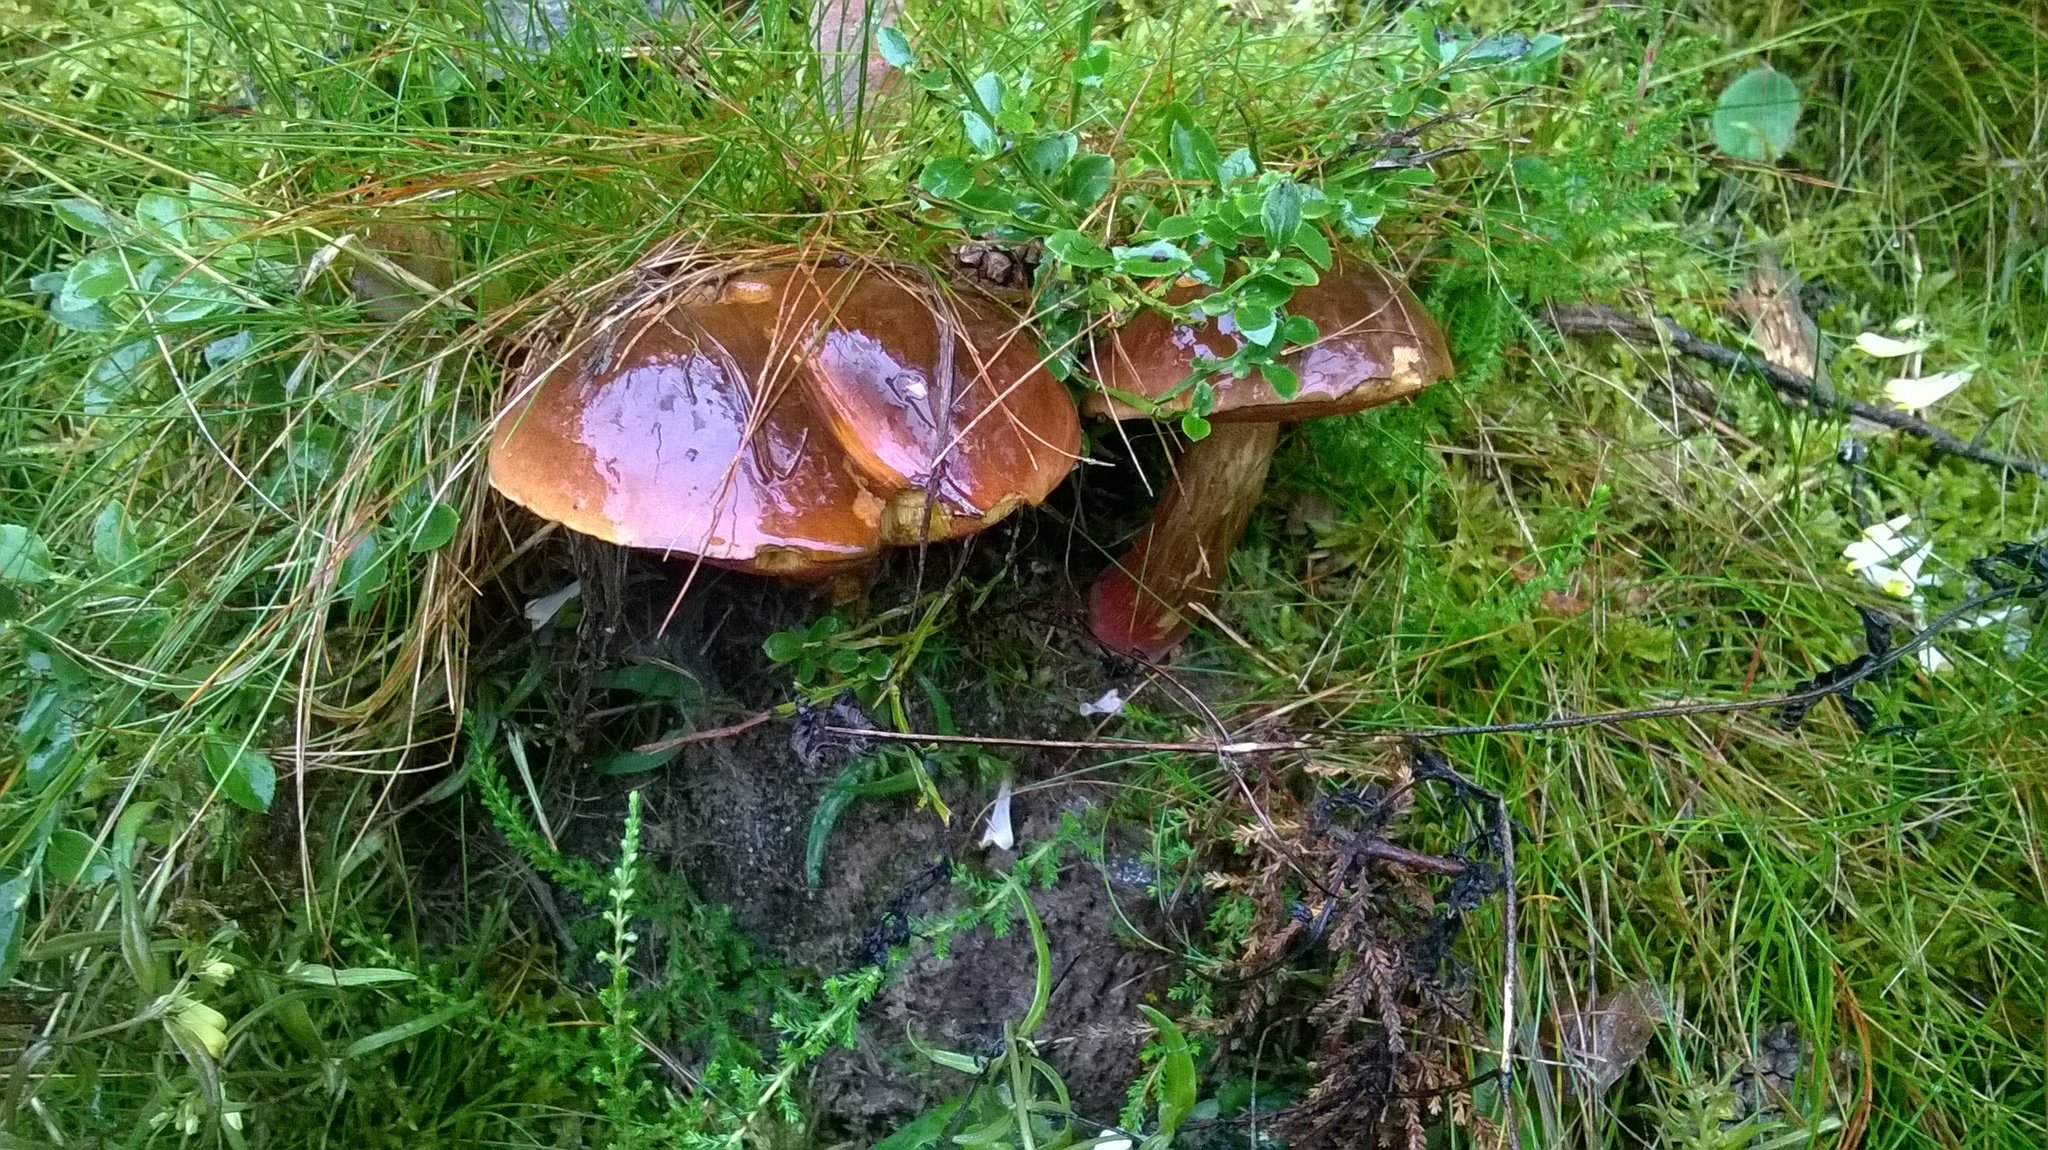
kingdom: Fungi
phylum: Basidiomycota
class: Agaricomycetes
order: Boletales
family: Boletaceae
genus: Neoboletus
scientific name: Neoboletus erythropus
